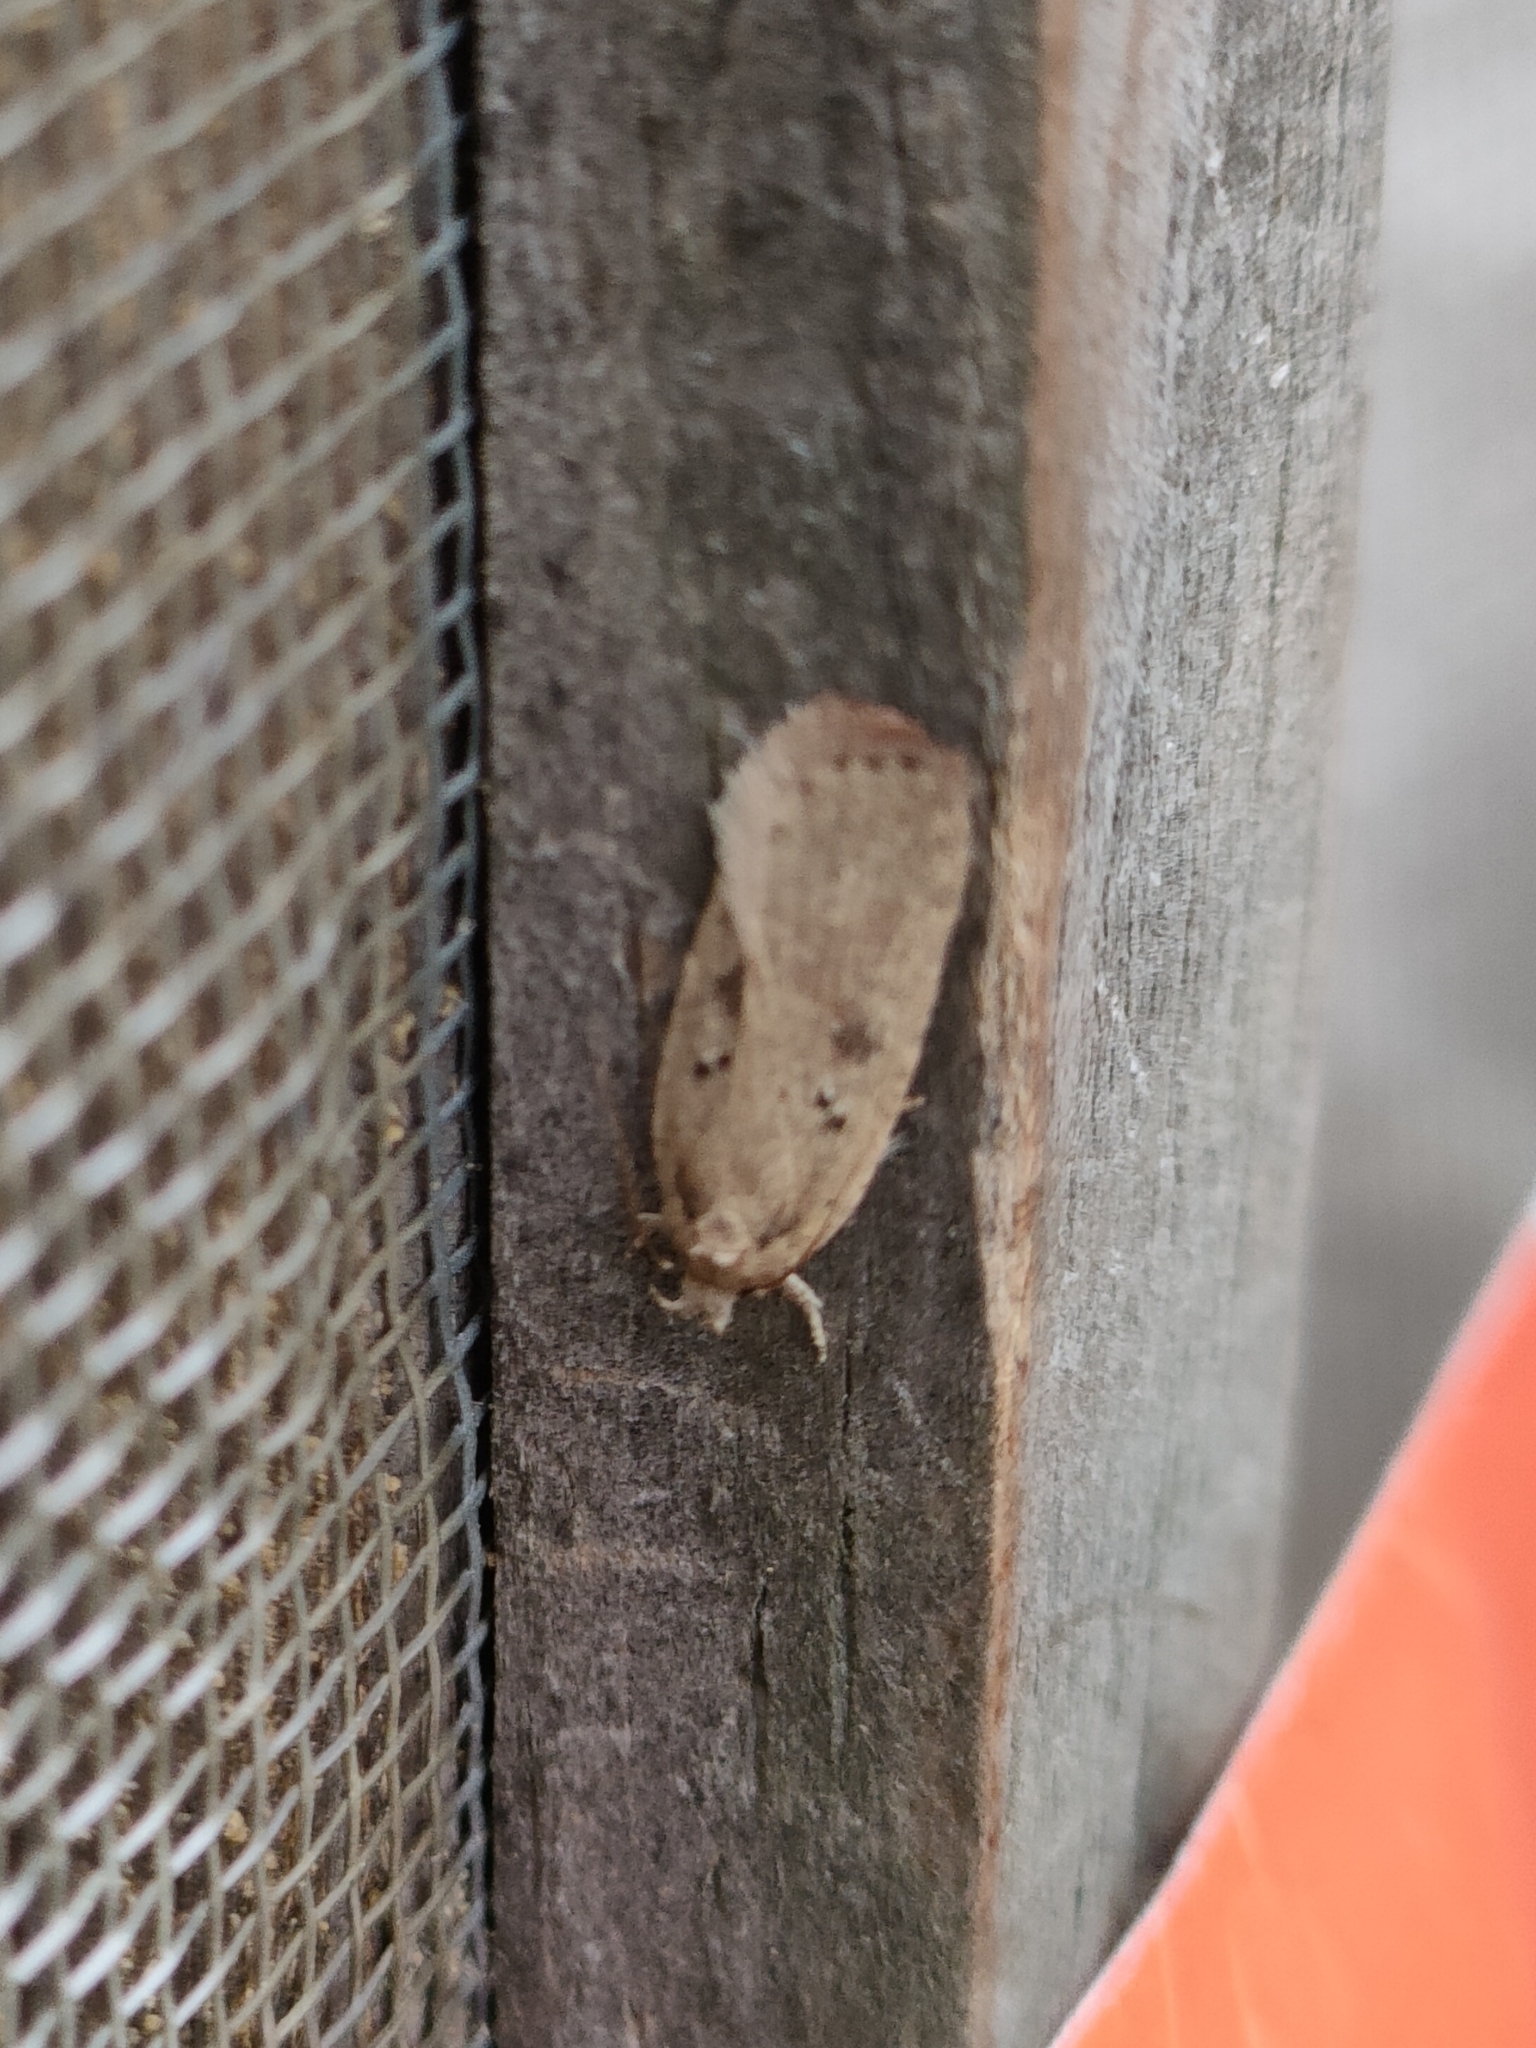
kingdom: Animalia
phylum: Arthropoda
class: Insecta
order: Lepidoptera
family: Depressariidae
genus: Agonopterix
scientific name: Agonopterix yeatiana
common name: Coastal flat-body
